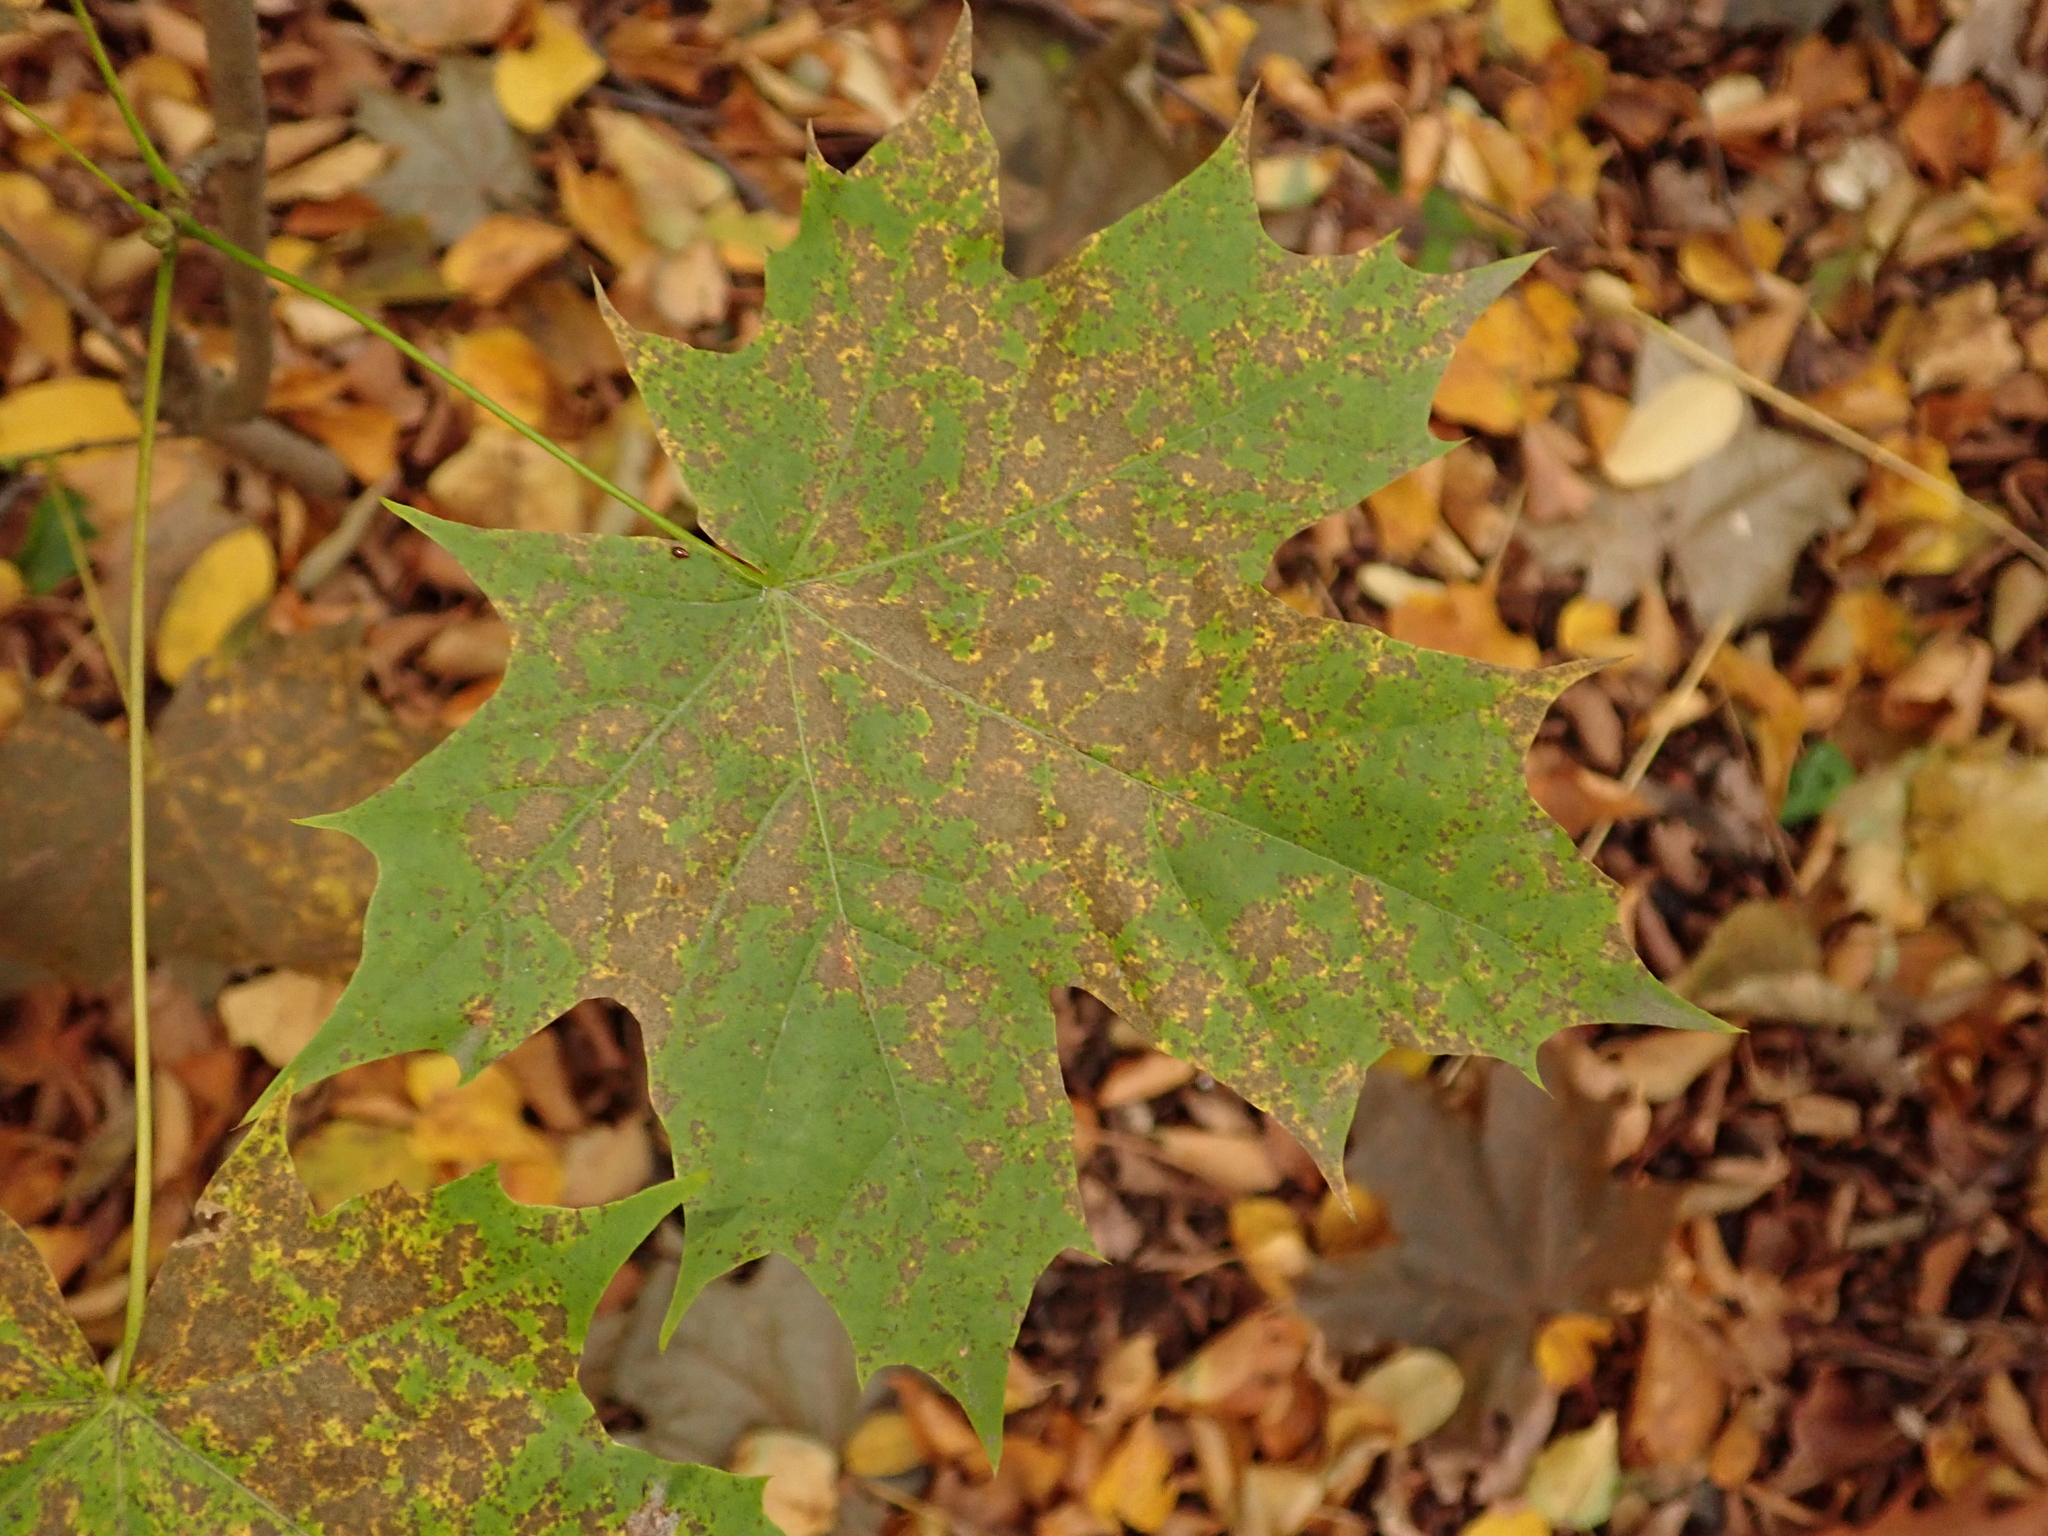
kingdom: Plantae
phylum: Tracheophyta
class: Magnoliopsida
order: Sapindales
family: Sapindaceae
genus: Acer
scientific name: Acer platanoides
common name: Norway maple
